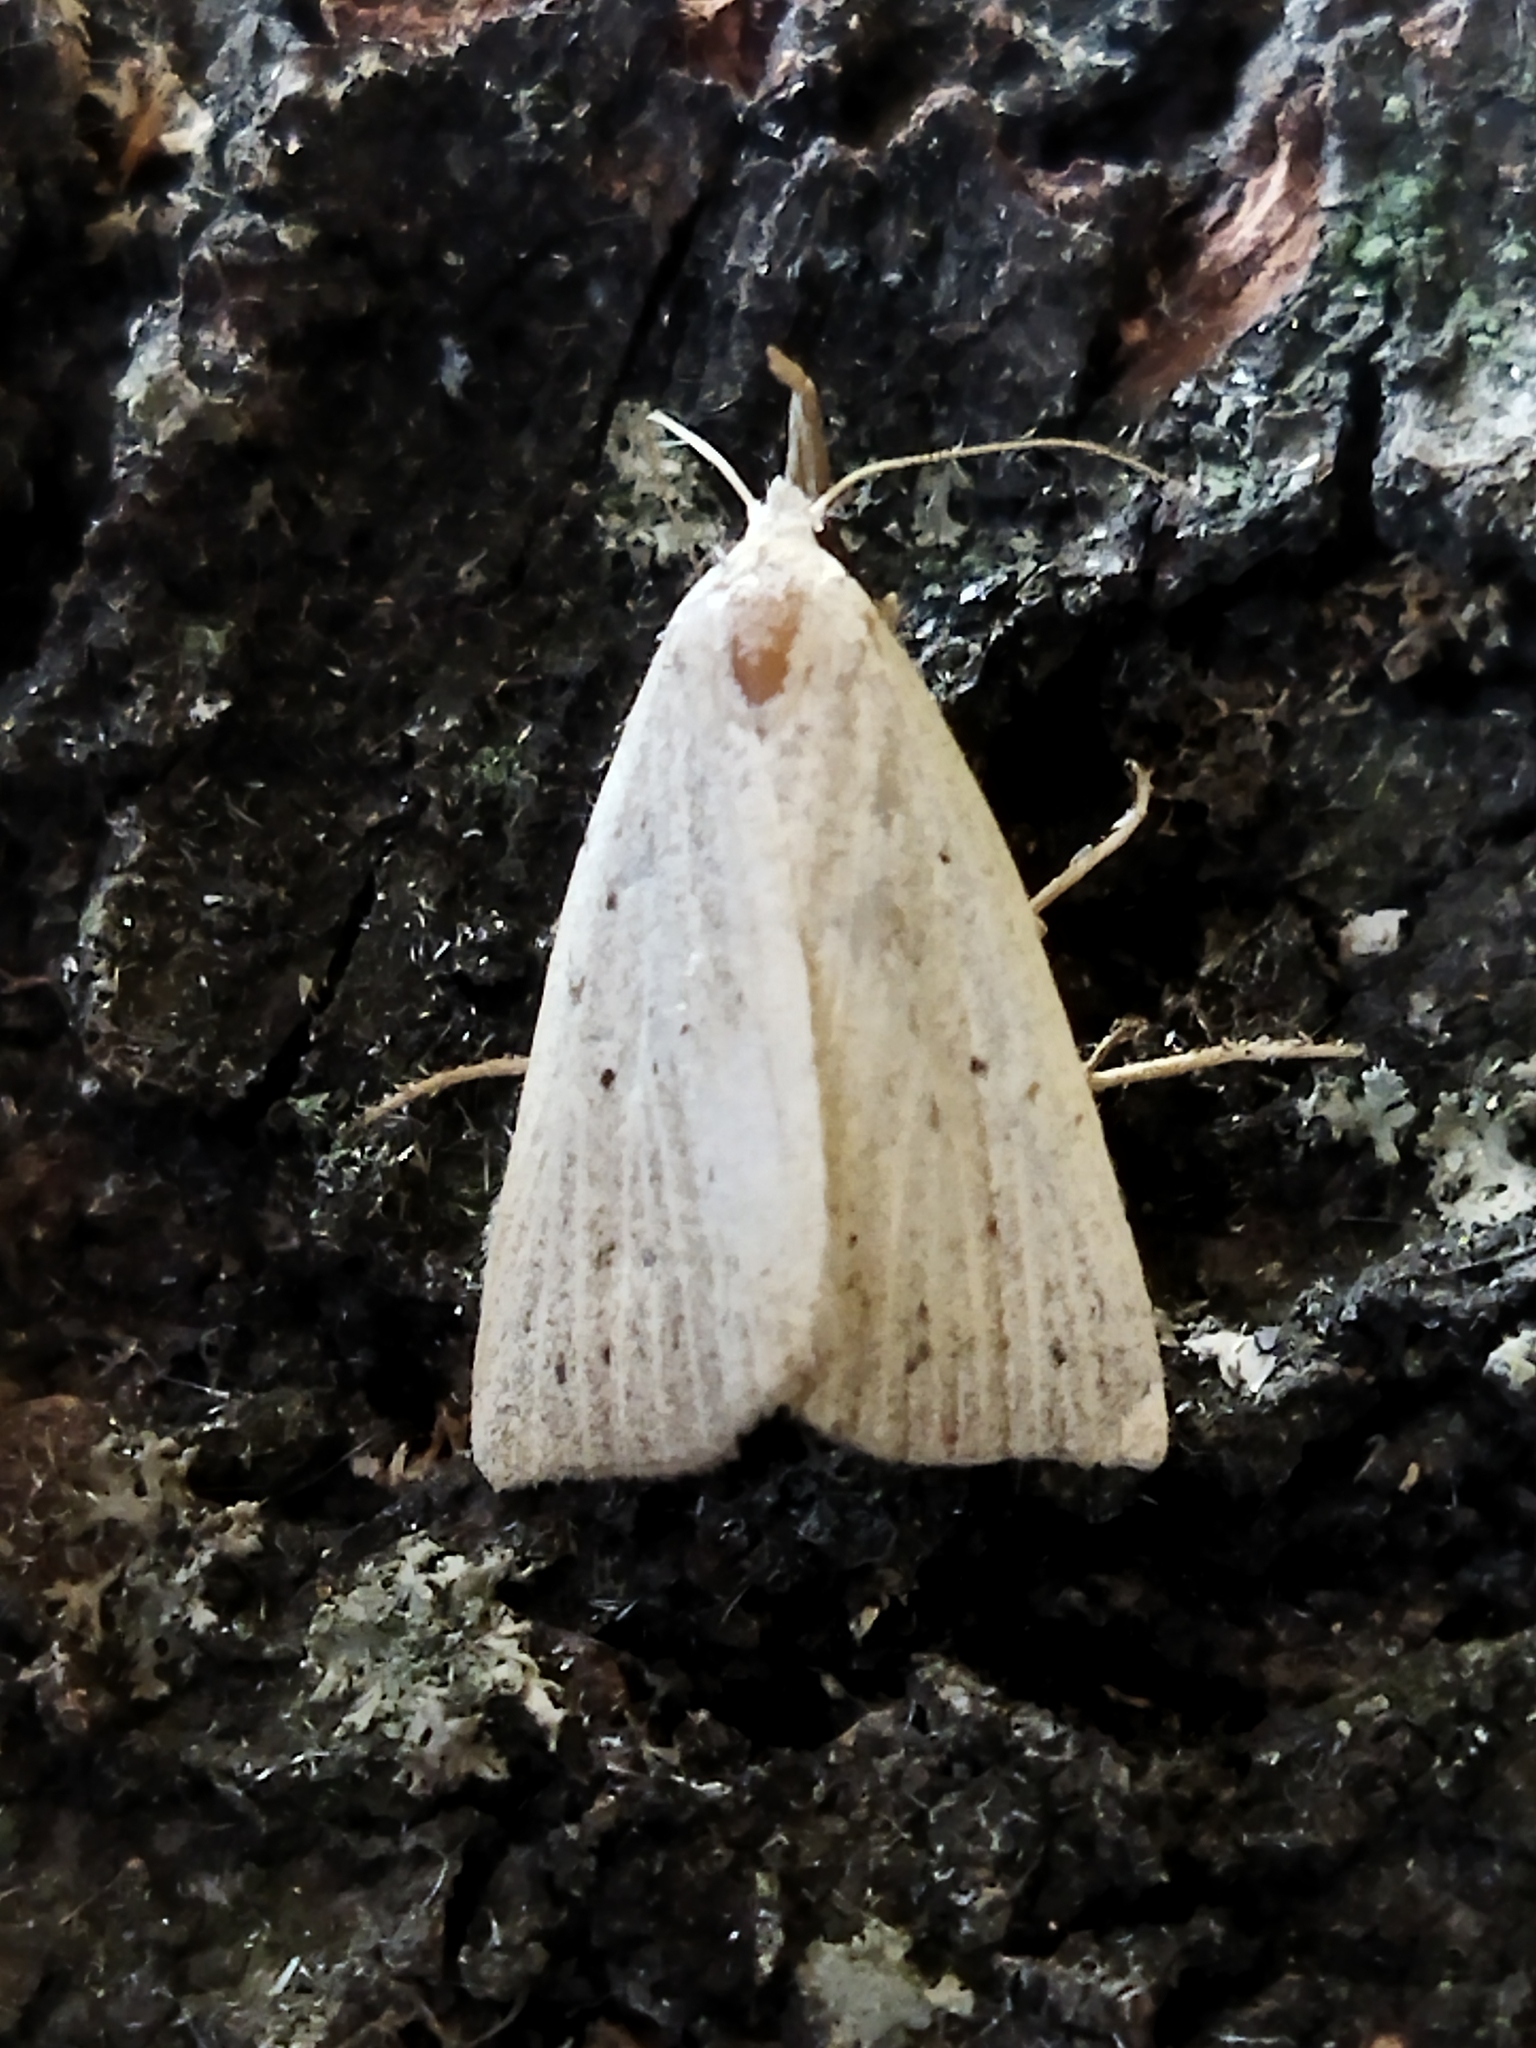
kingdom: Animalia
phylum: Arthropoda
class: Insecta
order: Lepidoptera
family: Erebidae
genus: Macrochilo
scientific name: Macrochilo cribrumalis
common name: Dotted fan-foot
